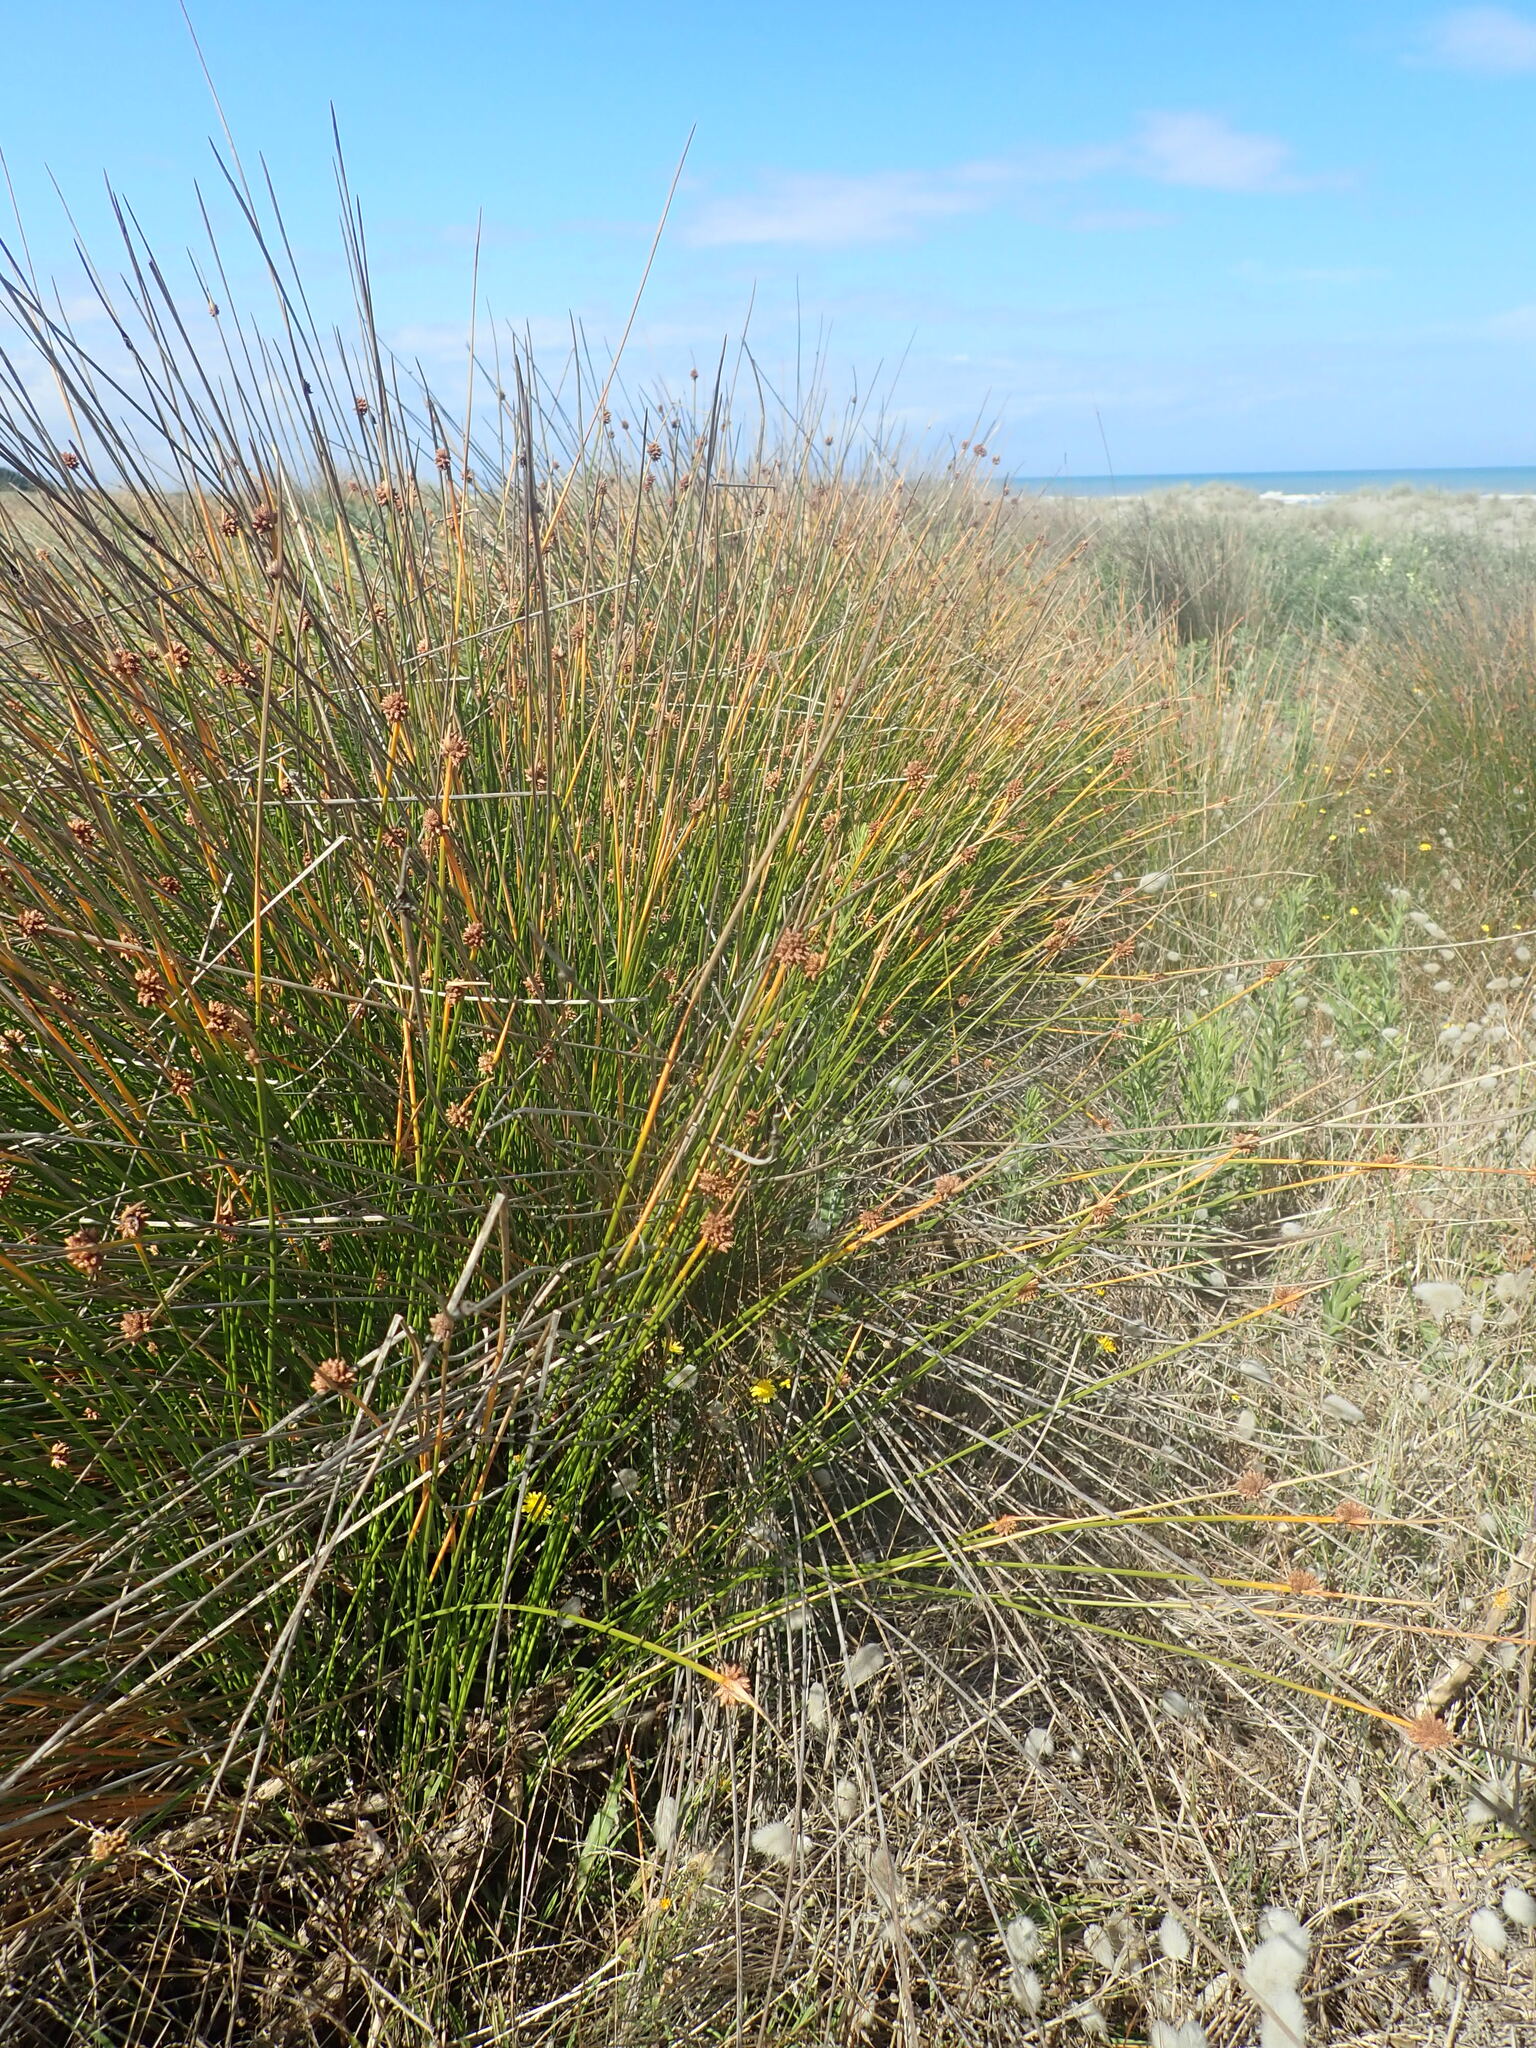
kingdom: Plantae
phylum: Tracheophyta
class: Liliopsida
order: Poales
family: Cyperaceae
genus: Ficinia
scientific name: Ficinia nodosa
